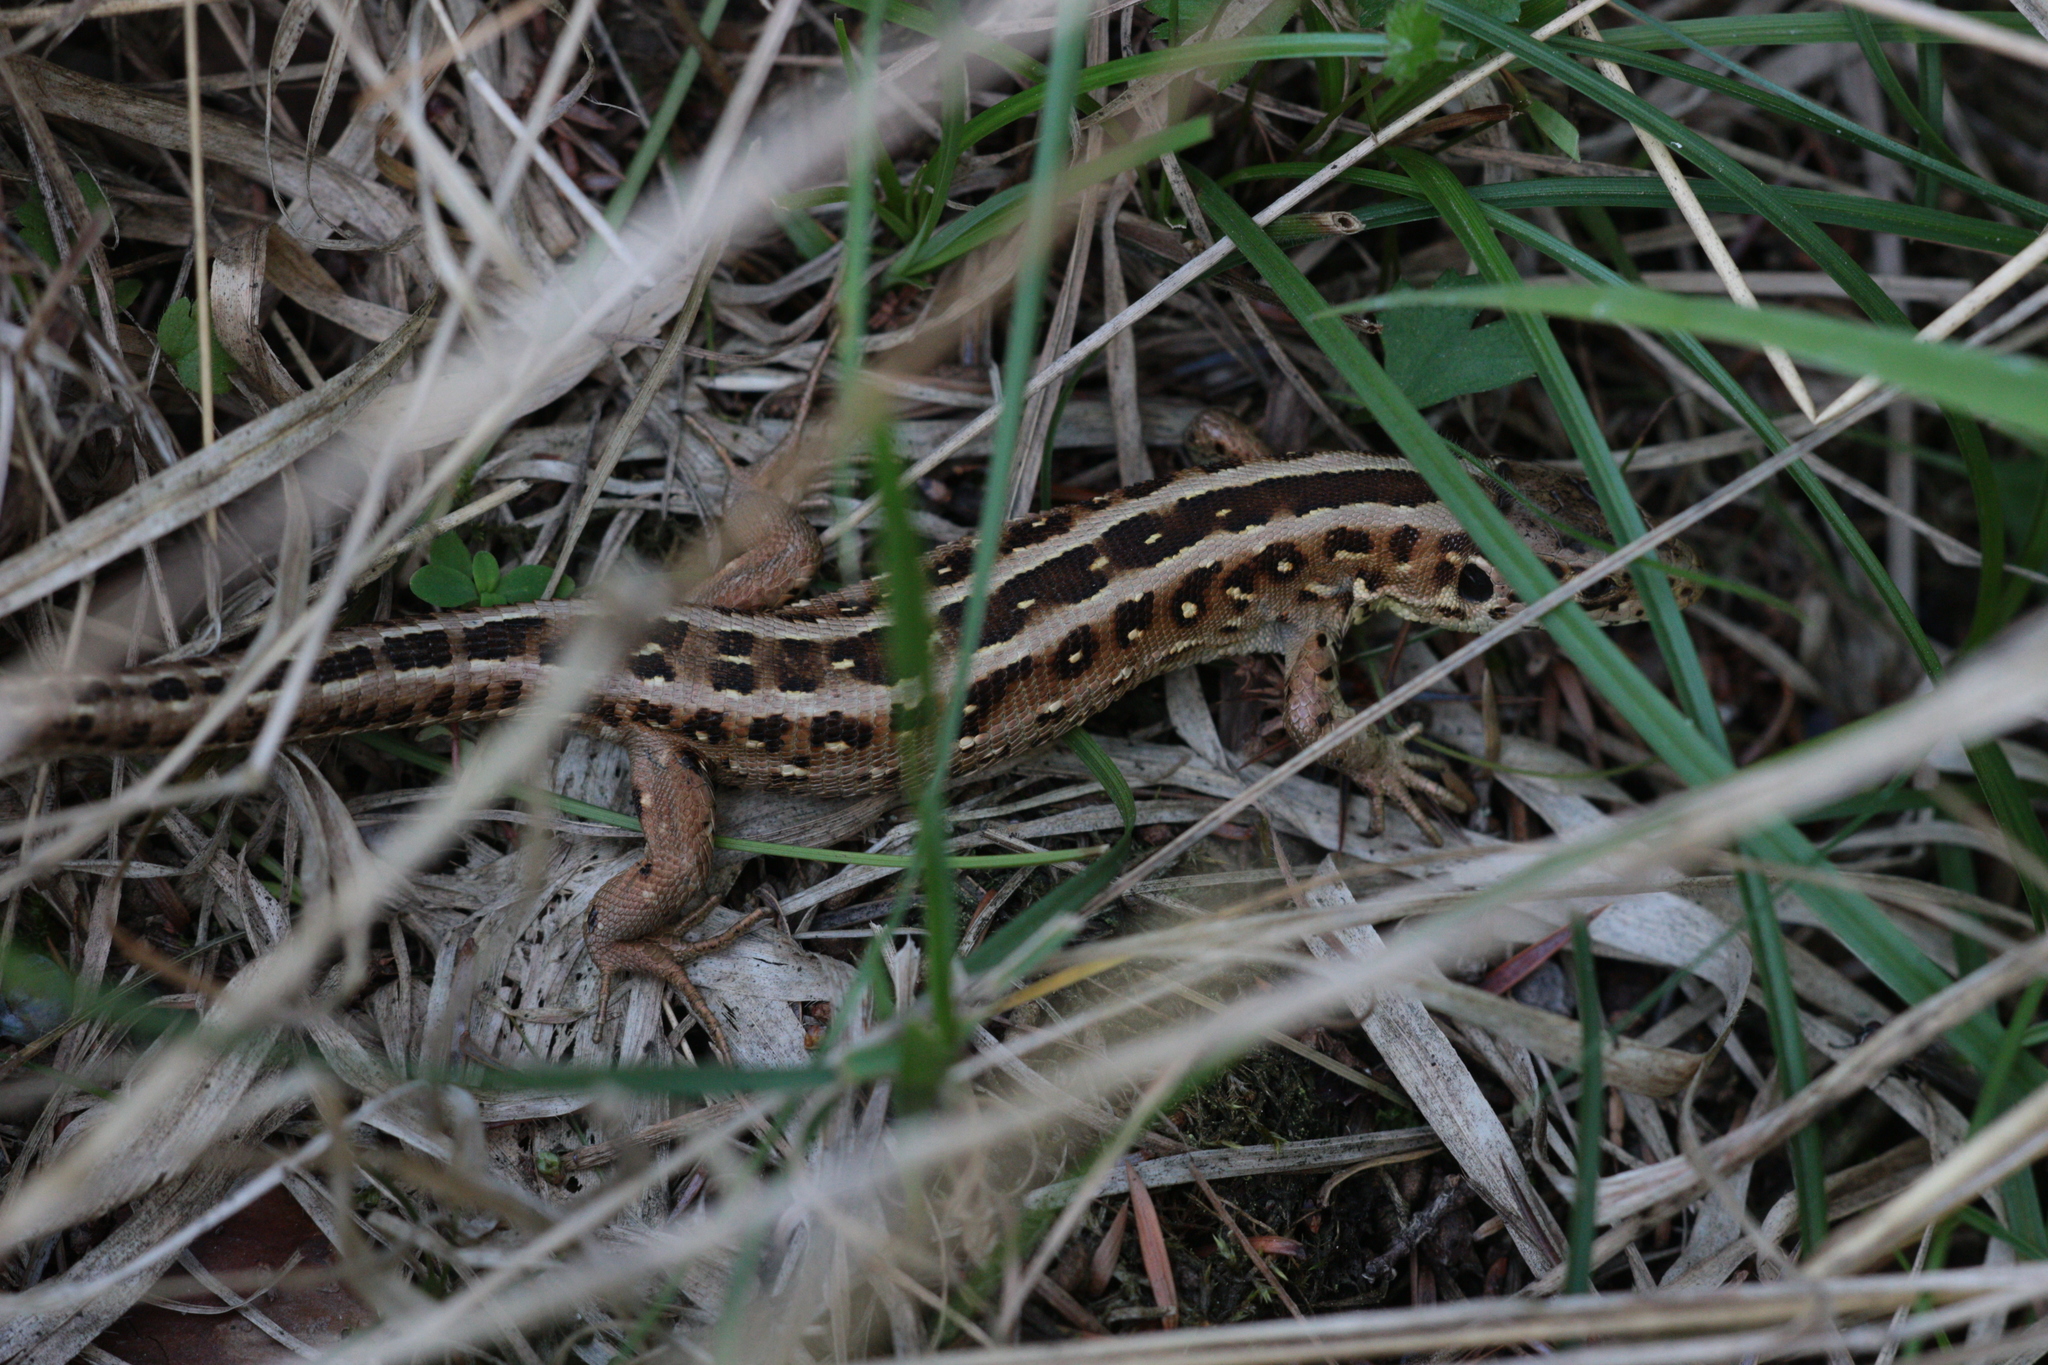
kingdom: Animalia
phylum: Chordata
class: Squamata
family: Lacertidae
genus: Lacerta
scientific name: Lacerta agilis
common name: Sand lizard
